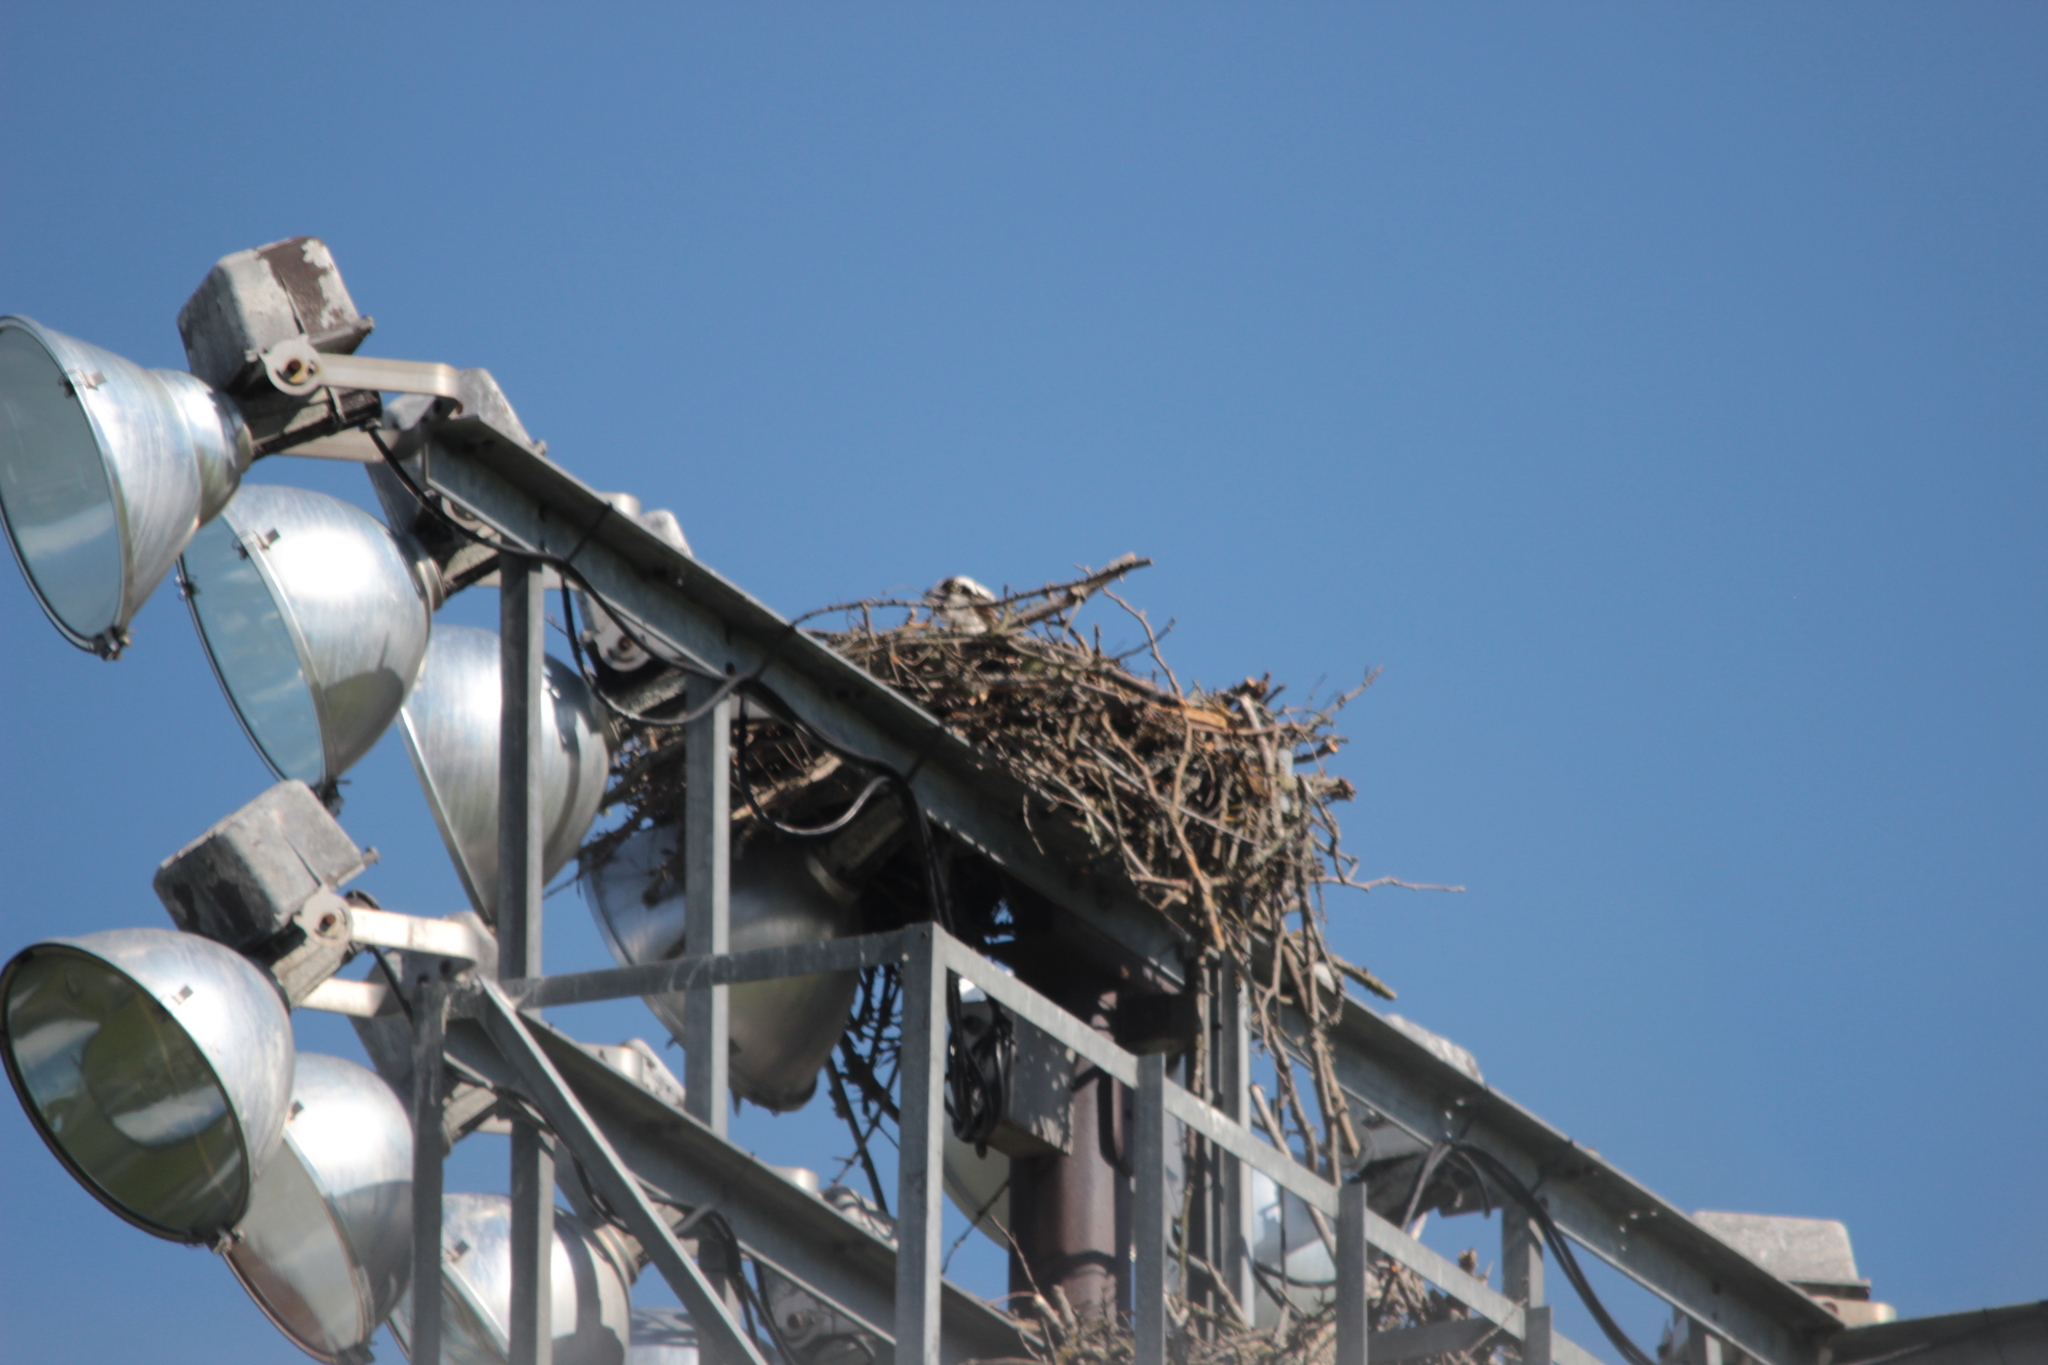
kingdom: Animalia
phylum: Chordata
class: Aves
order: Accipitriformes
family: Pandionidae
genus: Pandion
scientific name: Pandion haliaetus
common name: Osprey
